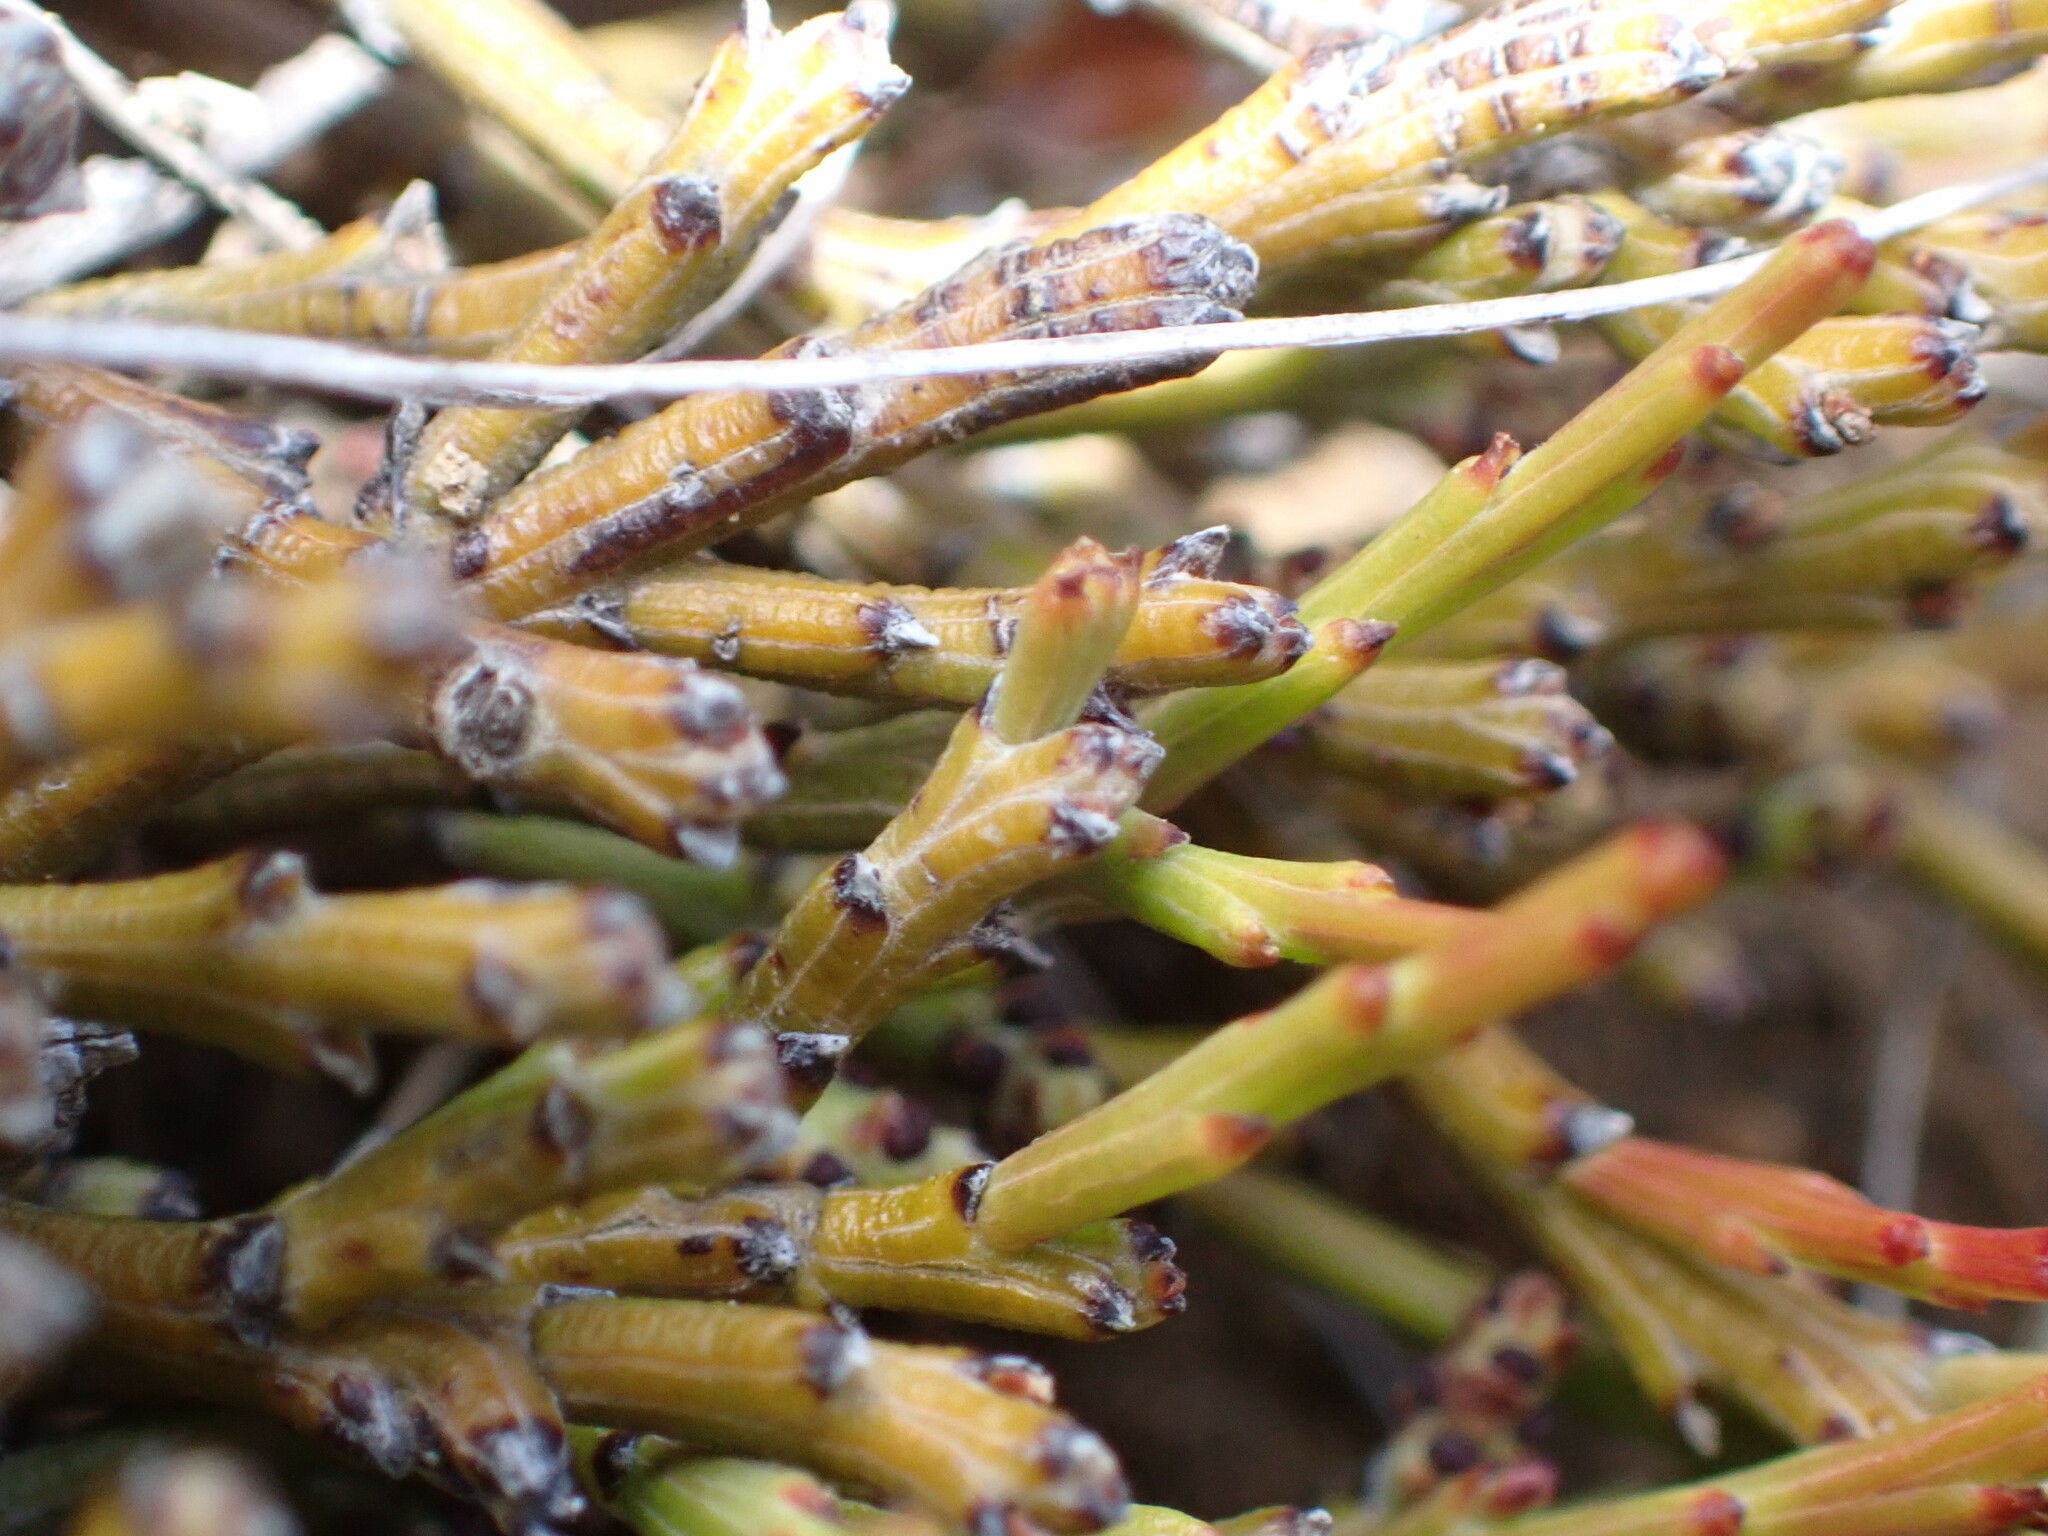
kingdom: Plantae
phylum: Tracheophyta
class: Magnoliopsida
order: Santalales
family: Santalaceae
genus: Exocarpos
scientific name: Exocarpos bidwillii
